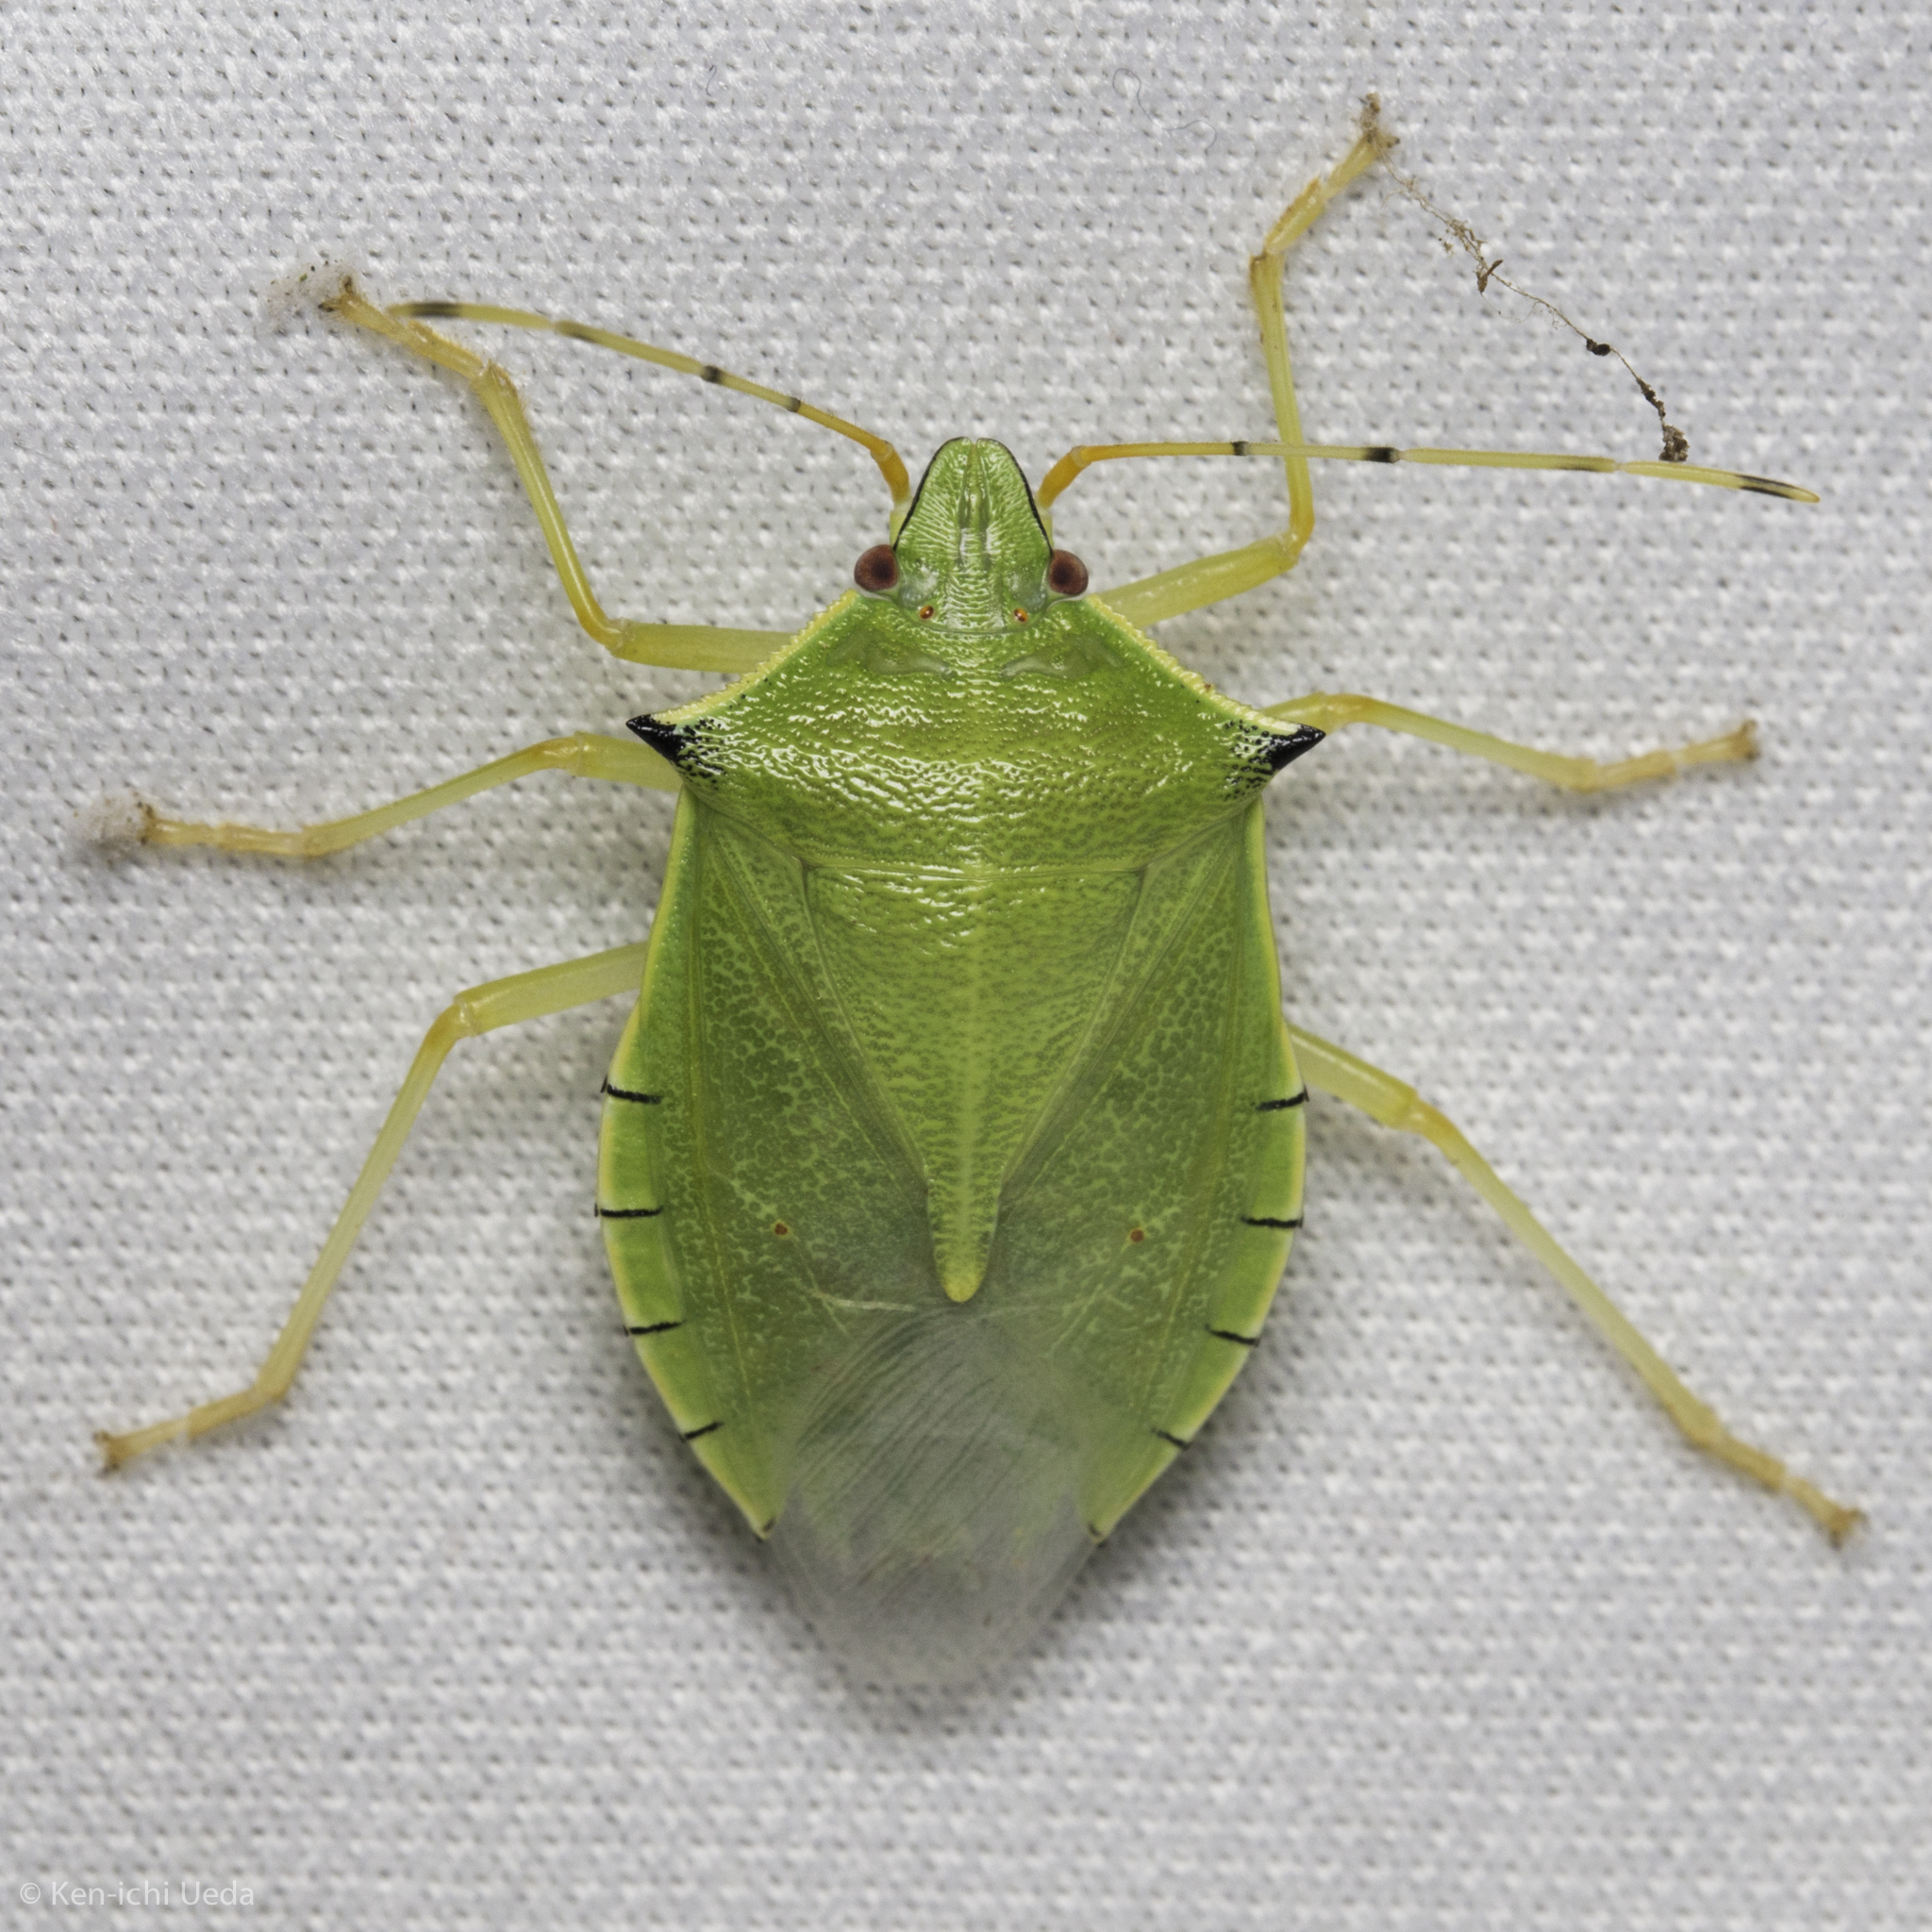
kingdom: Animalia
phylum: Arthropoda
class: Insecta
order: Hemiptera
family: Pentatomidae
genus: Chlorocoris
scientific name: Chlorocoris rufispinus
